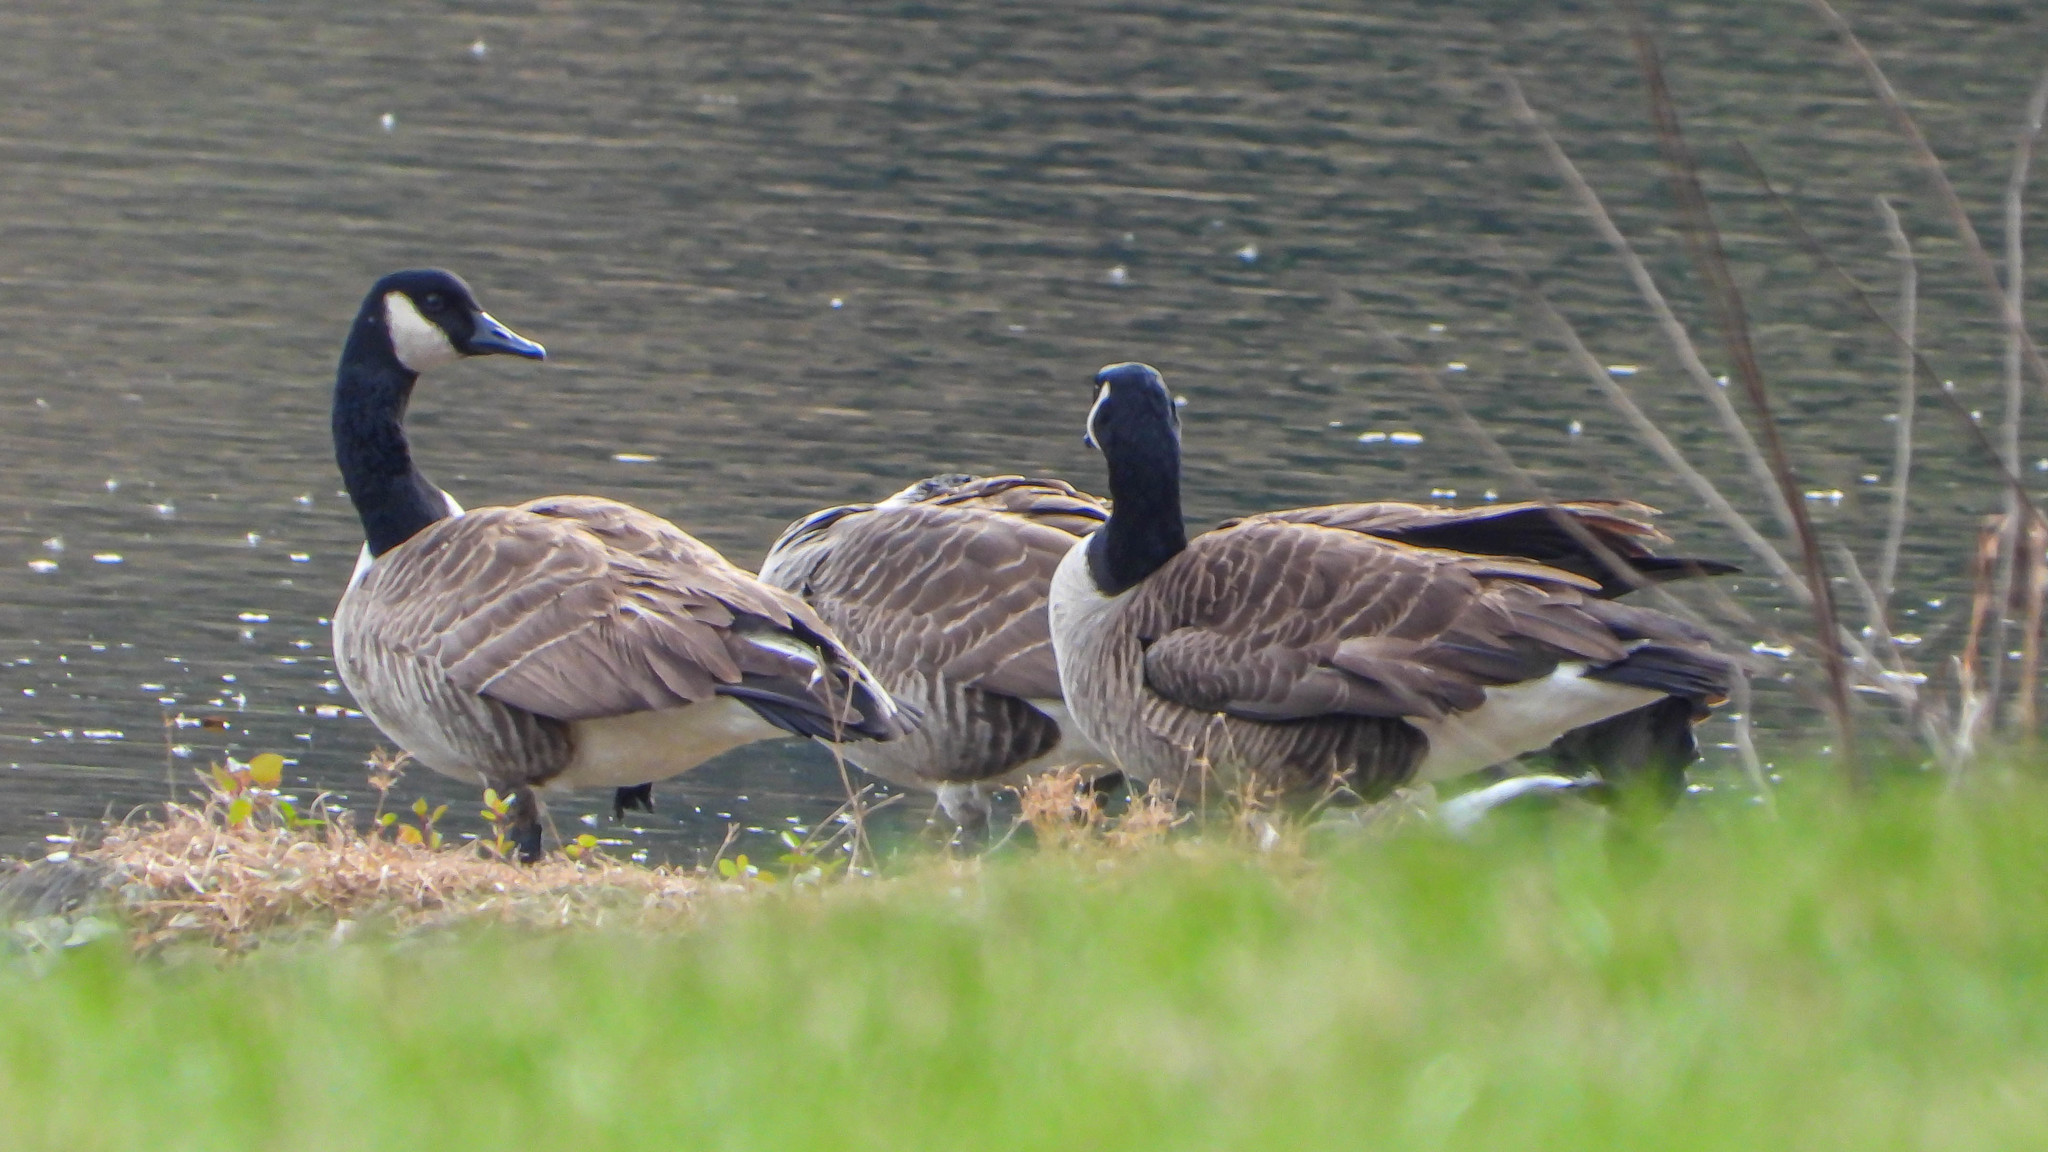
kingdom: Animalia
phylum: Chordata
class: Aves
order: Anseriformes
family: Anatidae
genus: Branta
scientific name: Branta canadensis
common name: Canada goose
